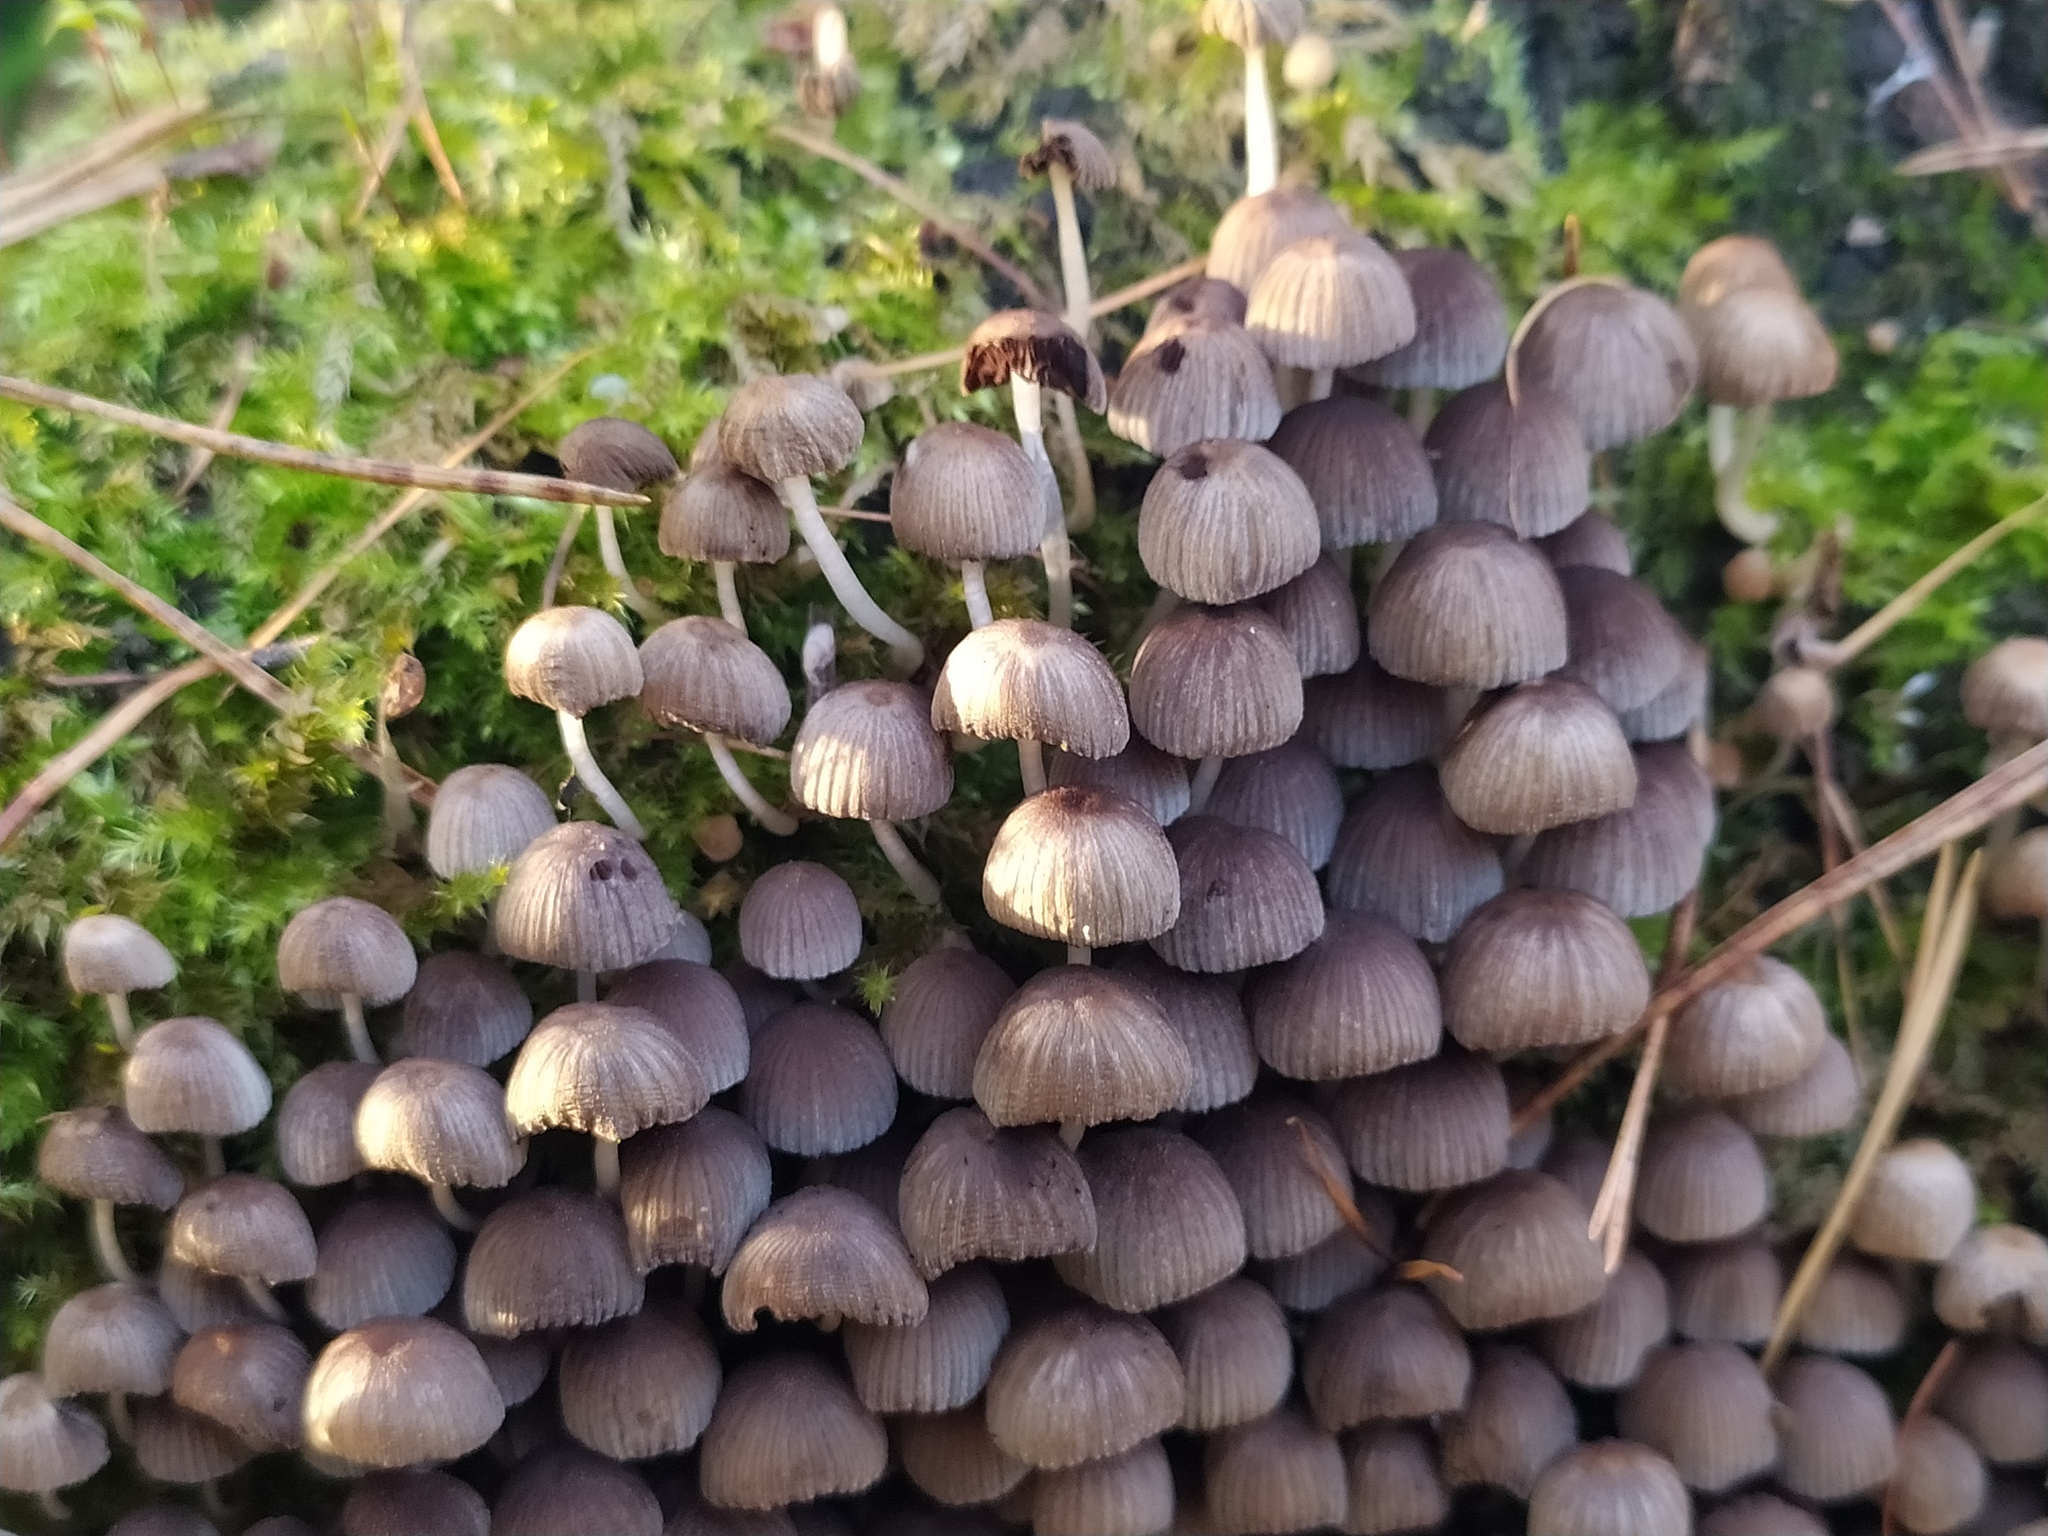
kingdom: Fungi
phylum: Basidiomycota
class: Agaricomycetes
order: Agaricales
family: Psathyrellaceae
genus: Coprinellus
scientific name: Coprinellus disseminatus
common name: Fairies' bonnets
